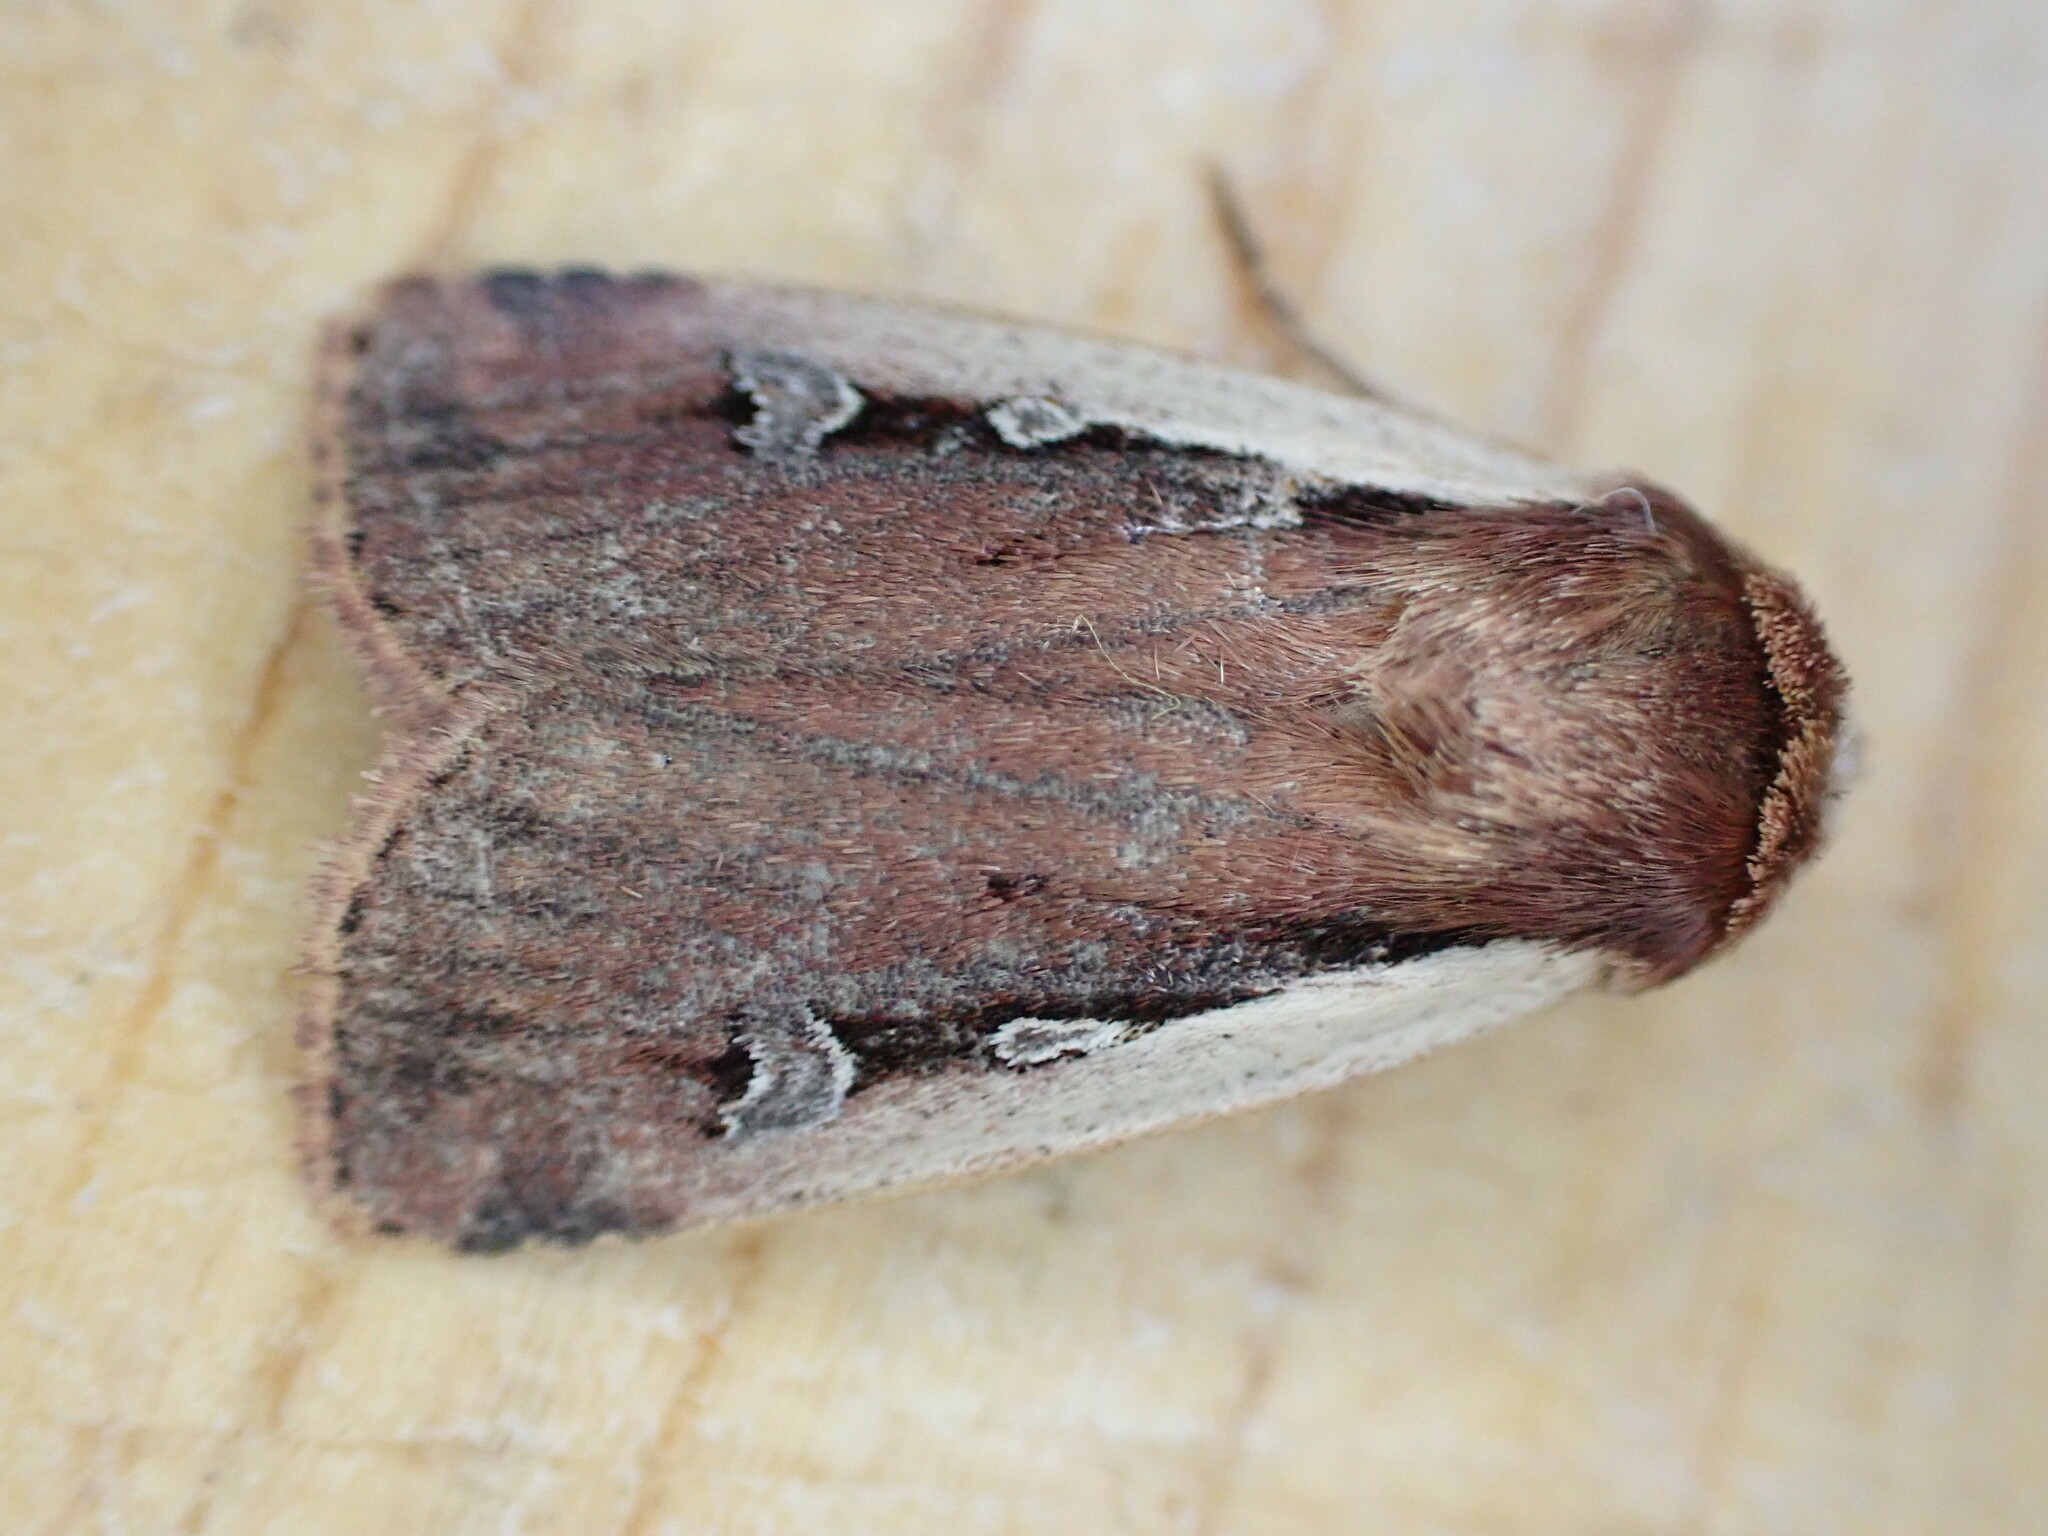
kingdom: Animalia
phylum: Arthropoda
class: Insecta
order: Lepidoptera
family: Noctuidae
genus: Ochropleura
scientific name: Ochropleura plecta
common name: Flame shoulder
